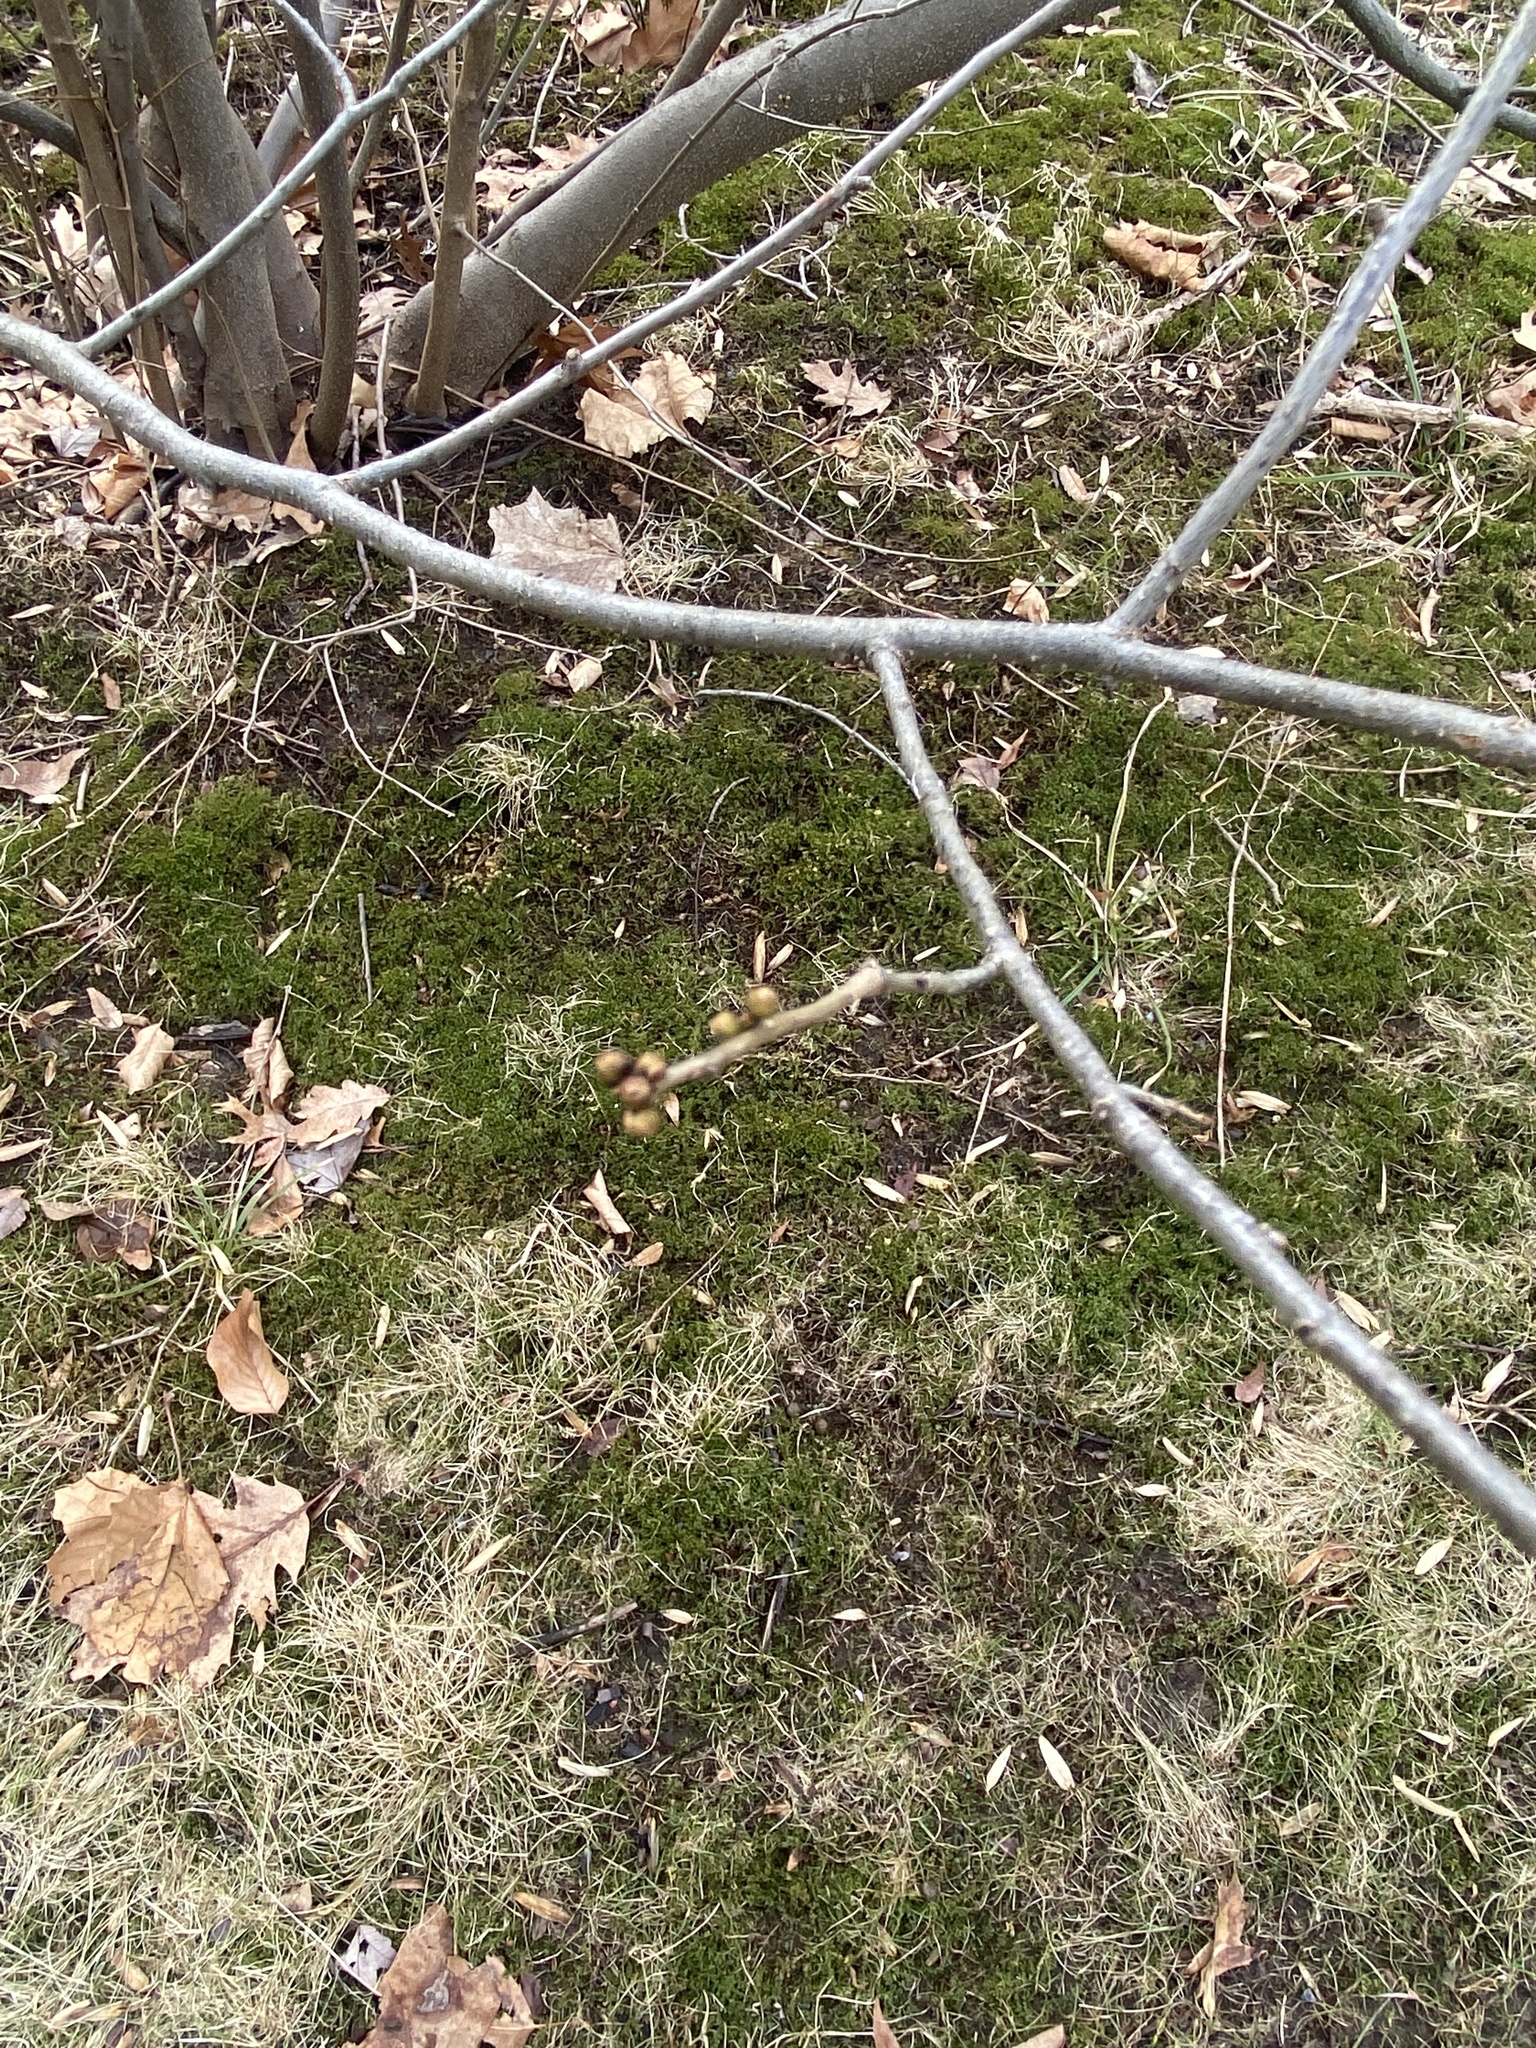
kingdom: Plantae
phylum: Tracheophyta
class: Magnoliopsida
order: Laurales
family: Lauraceae
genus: Lindera
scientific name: Lindera benzoin
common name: Spicebush
